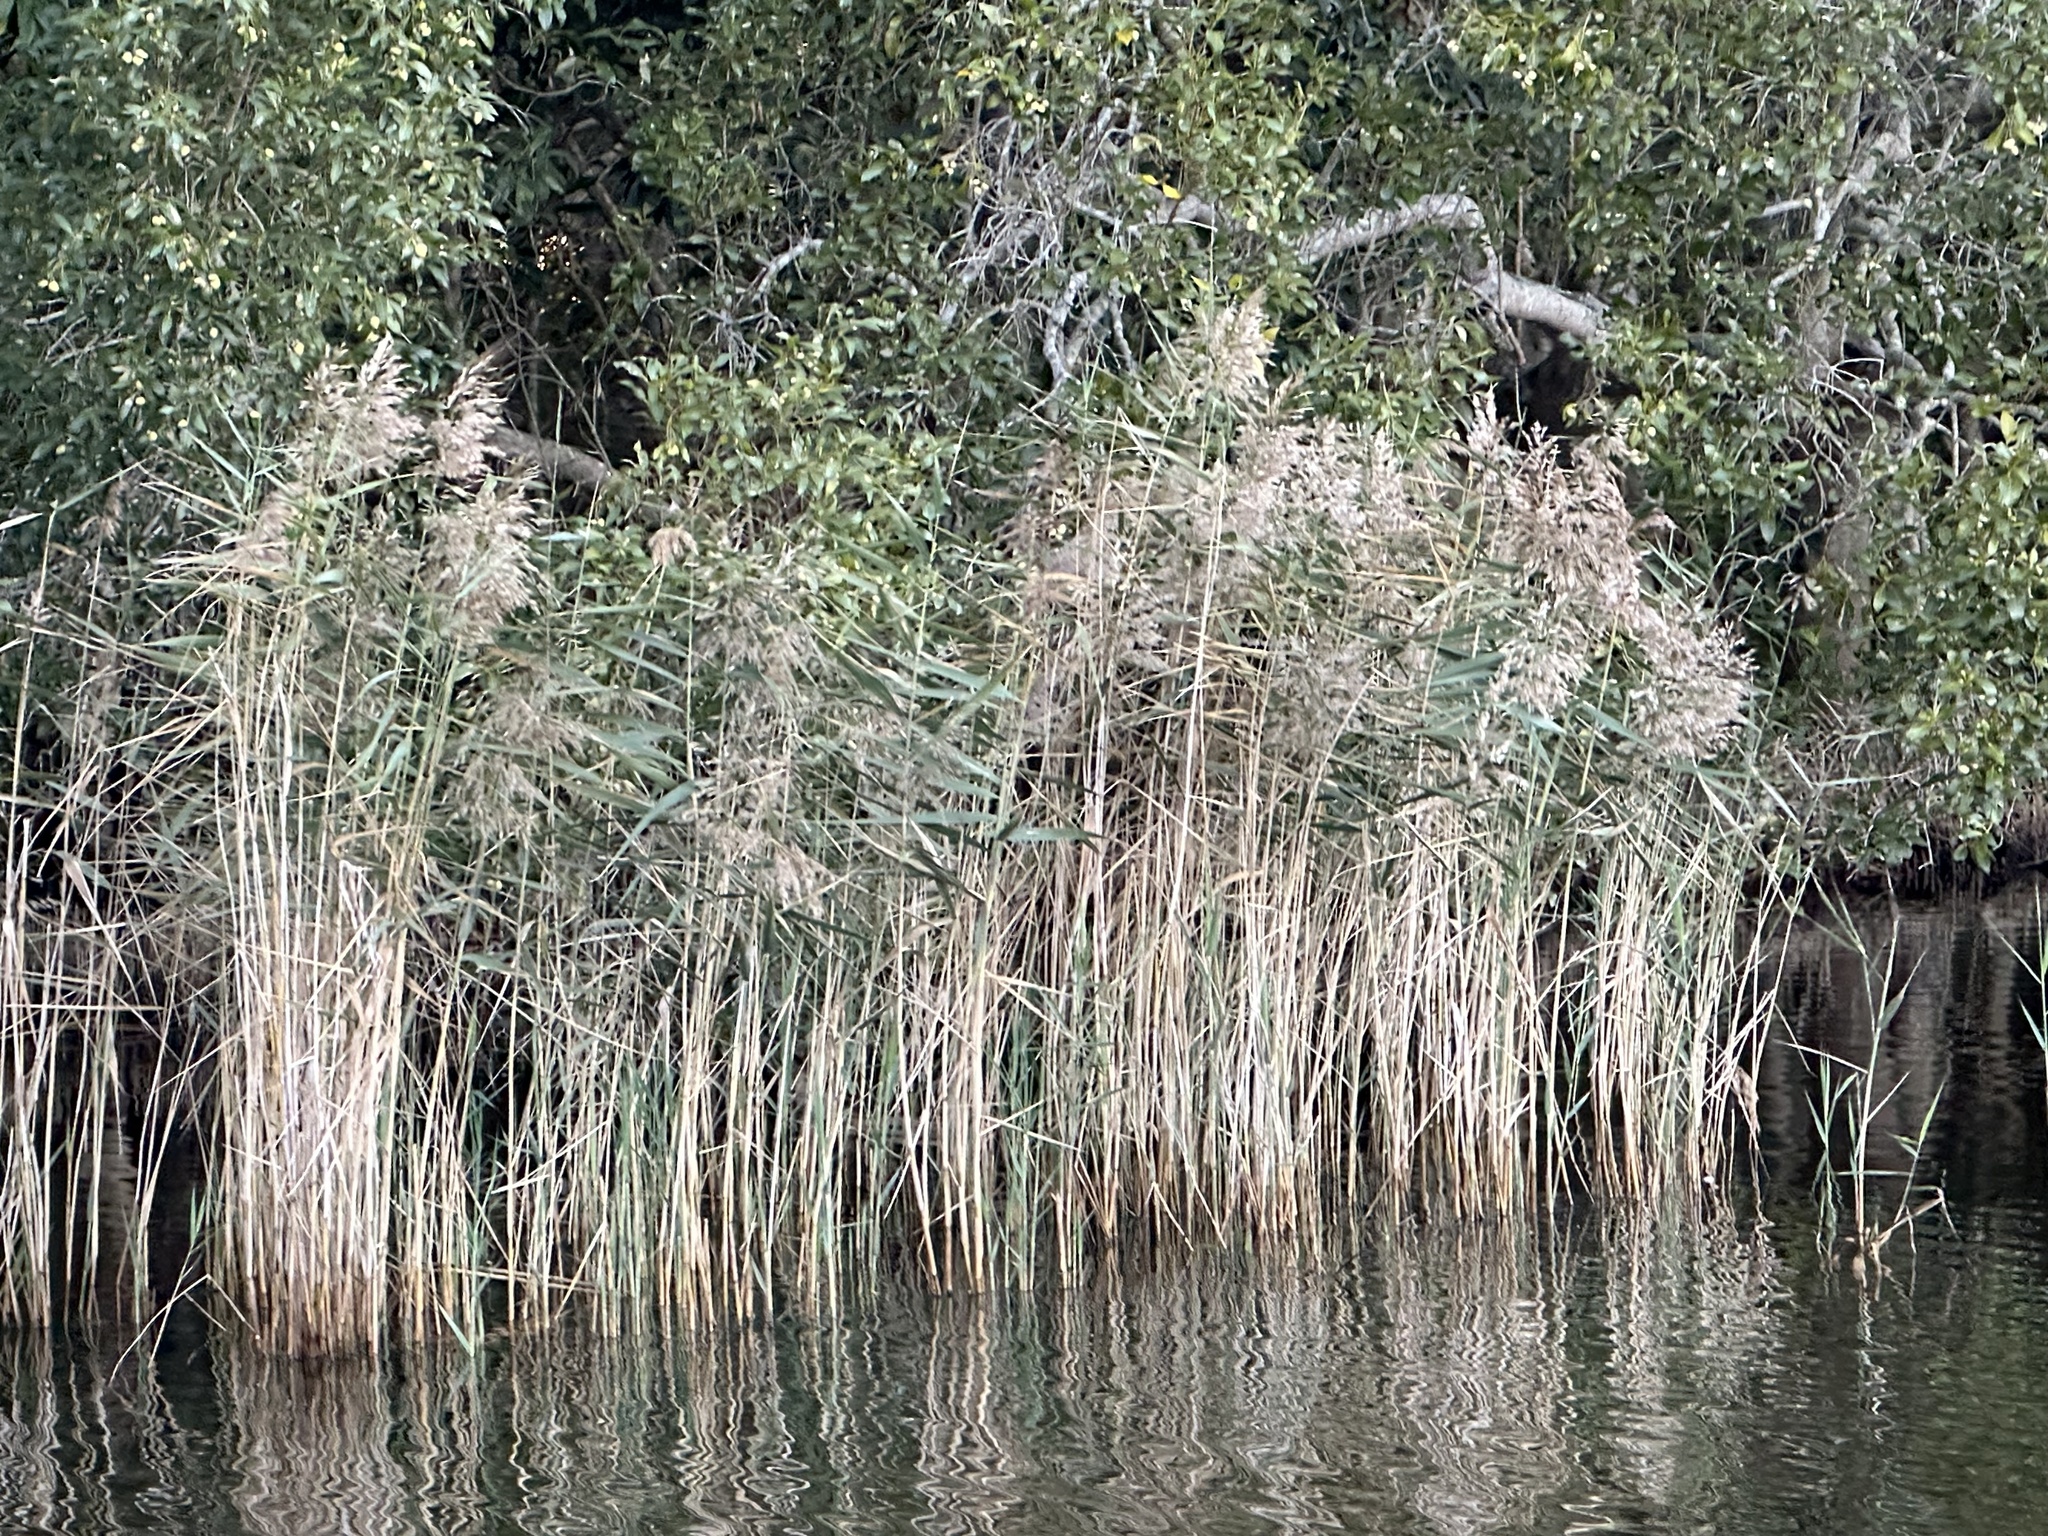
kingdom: Plantae
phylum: Tracheophyta
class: Liliopsida
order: Poales
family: Poaceae
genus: Phragmites
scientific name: Phragmites australis
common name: Common reed
